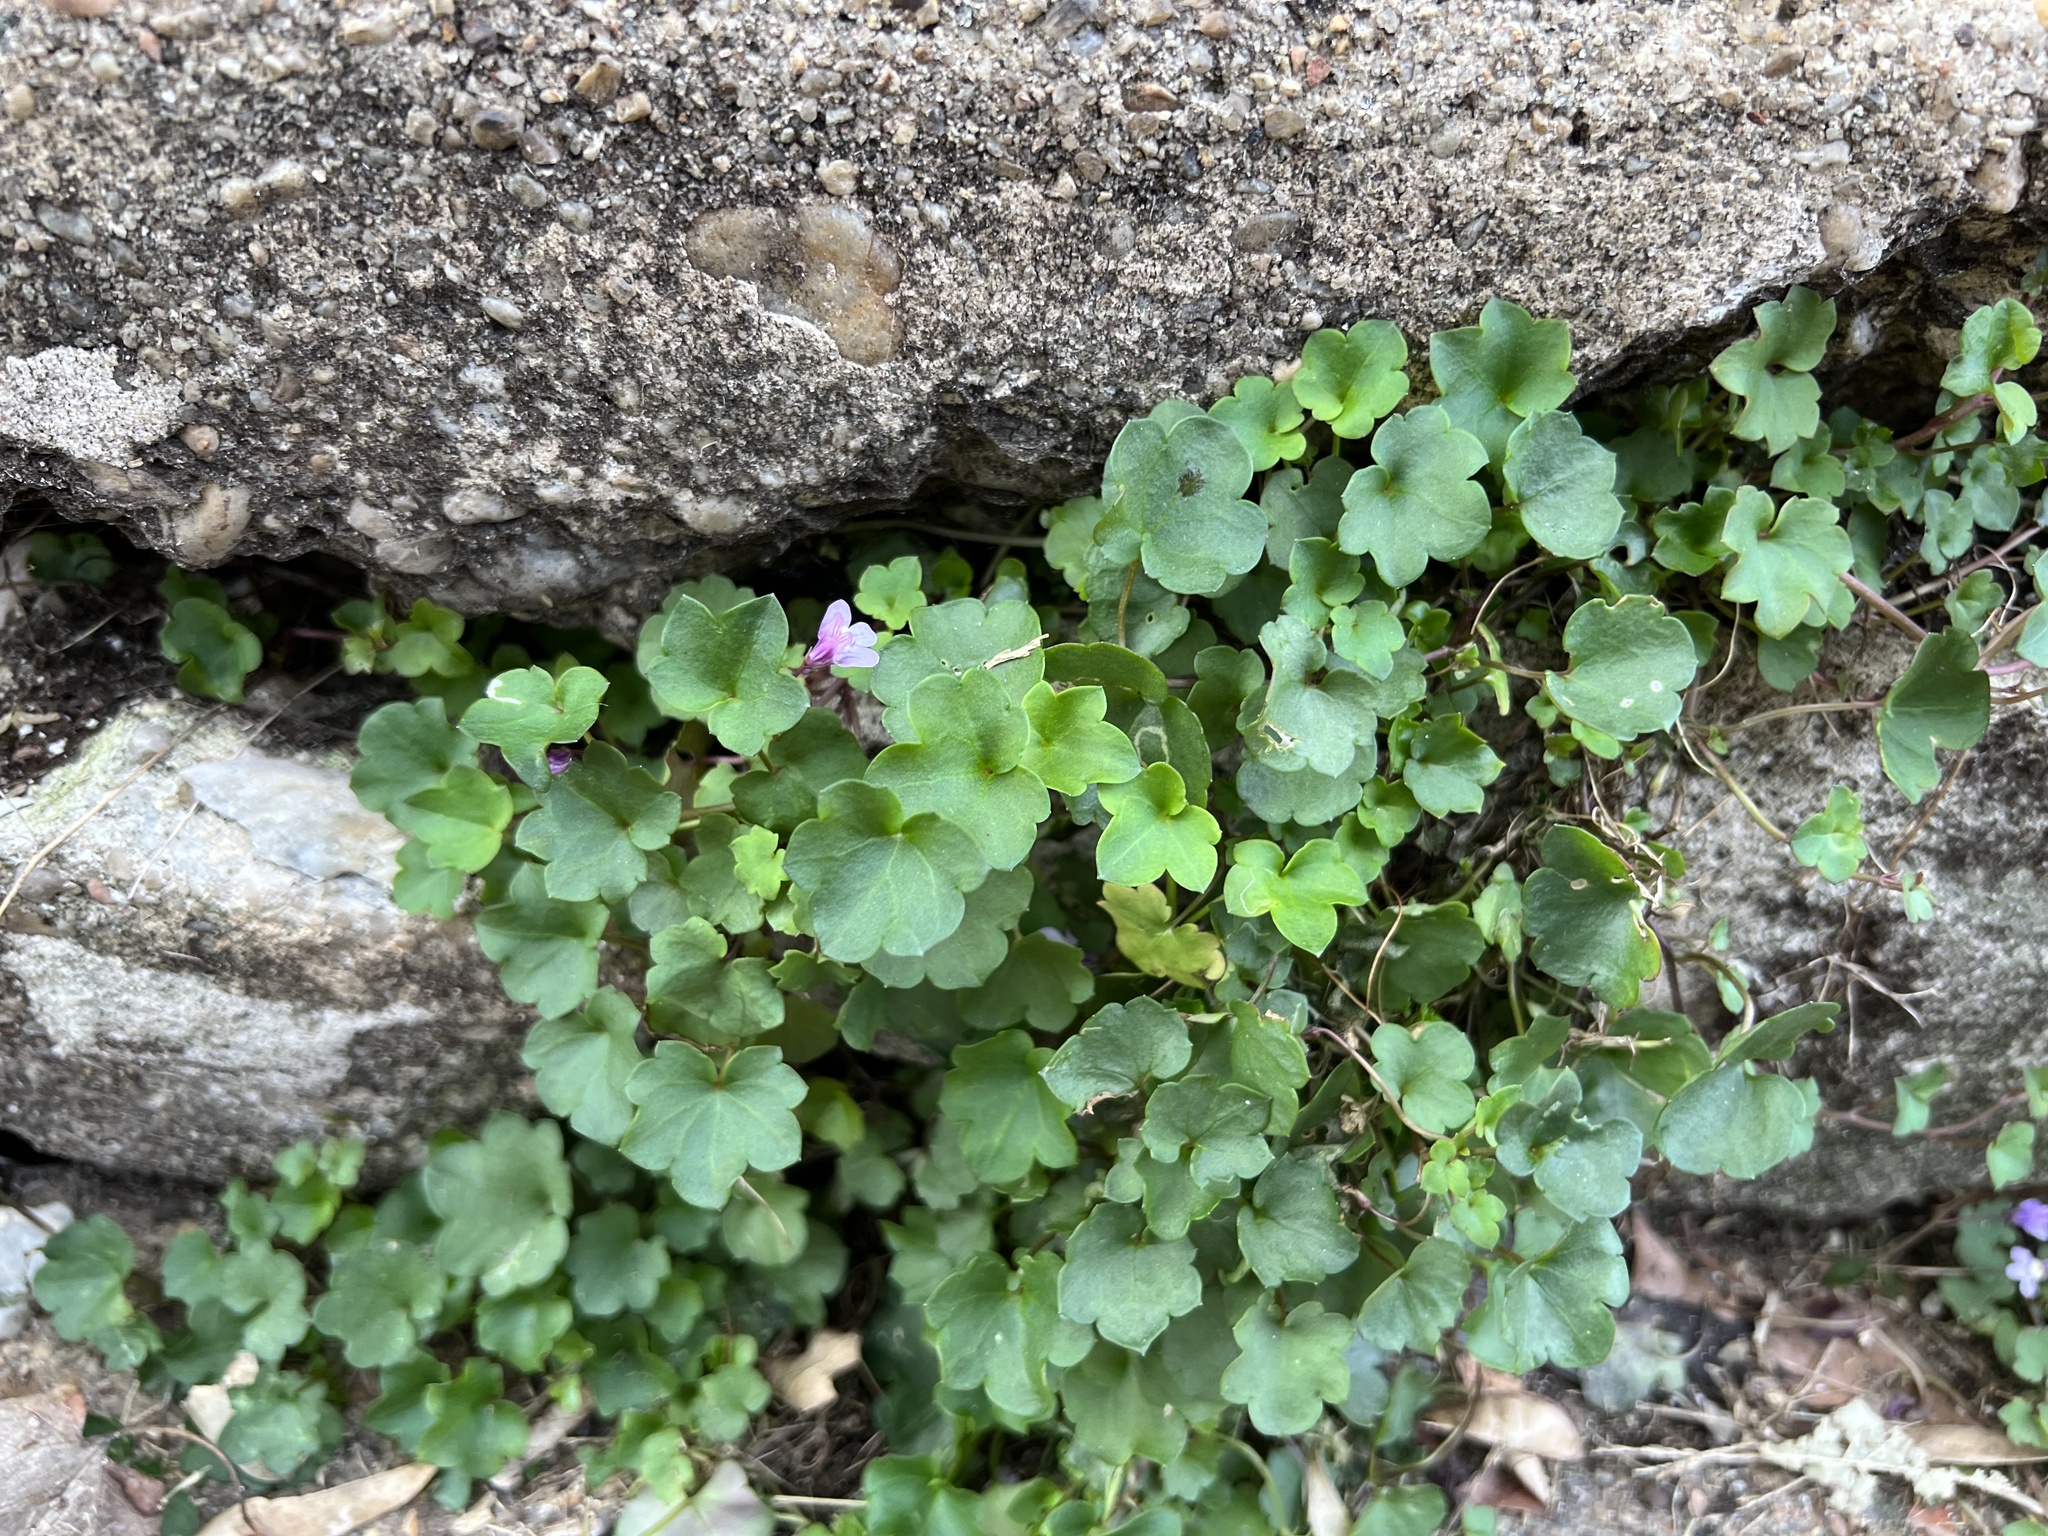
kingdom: Plantae
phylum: Tracheophyta
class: Magnoliopsida
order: Lamiales
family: Plantaginaceae
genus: Cymbalaria
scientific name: Cymbalaria muralis
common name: Ivy-leaved toadflax
